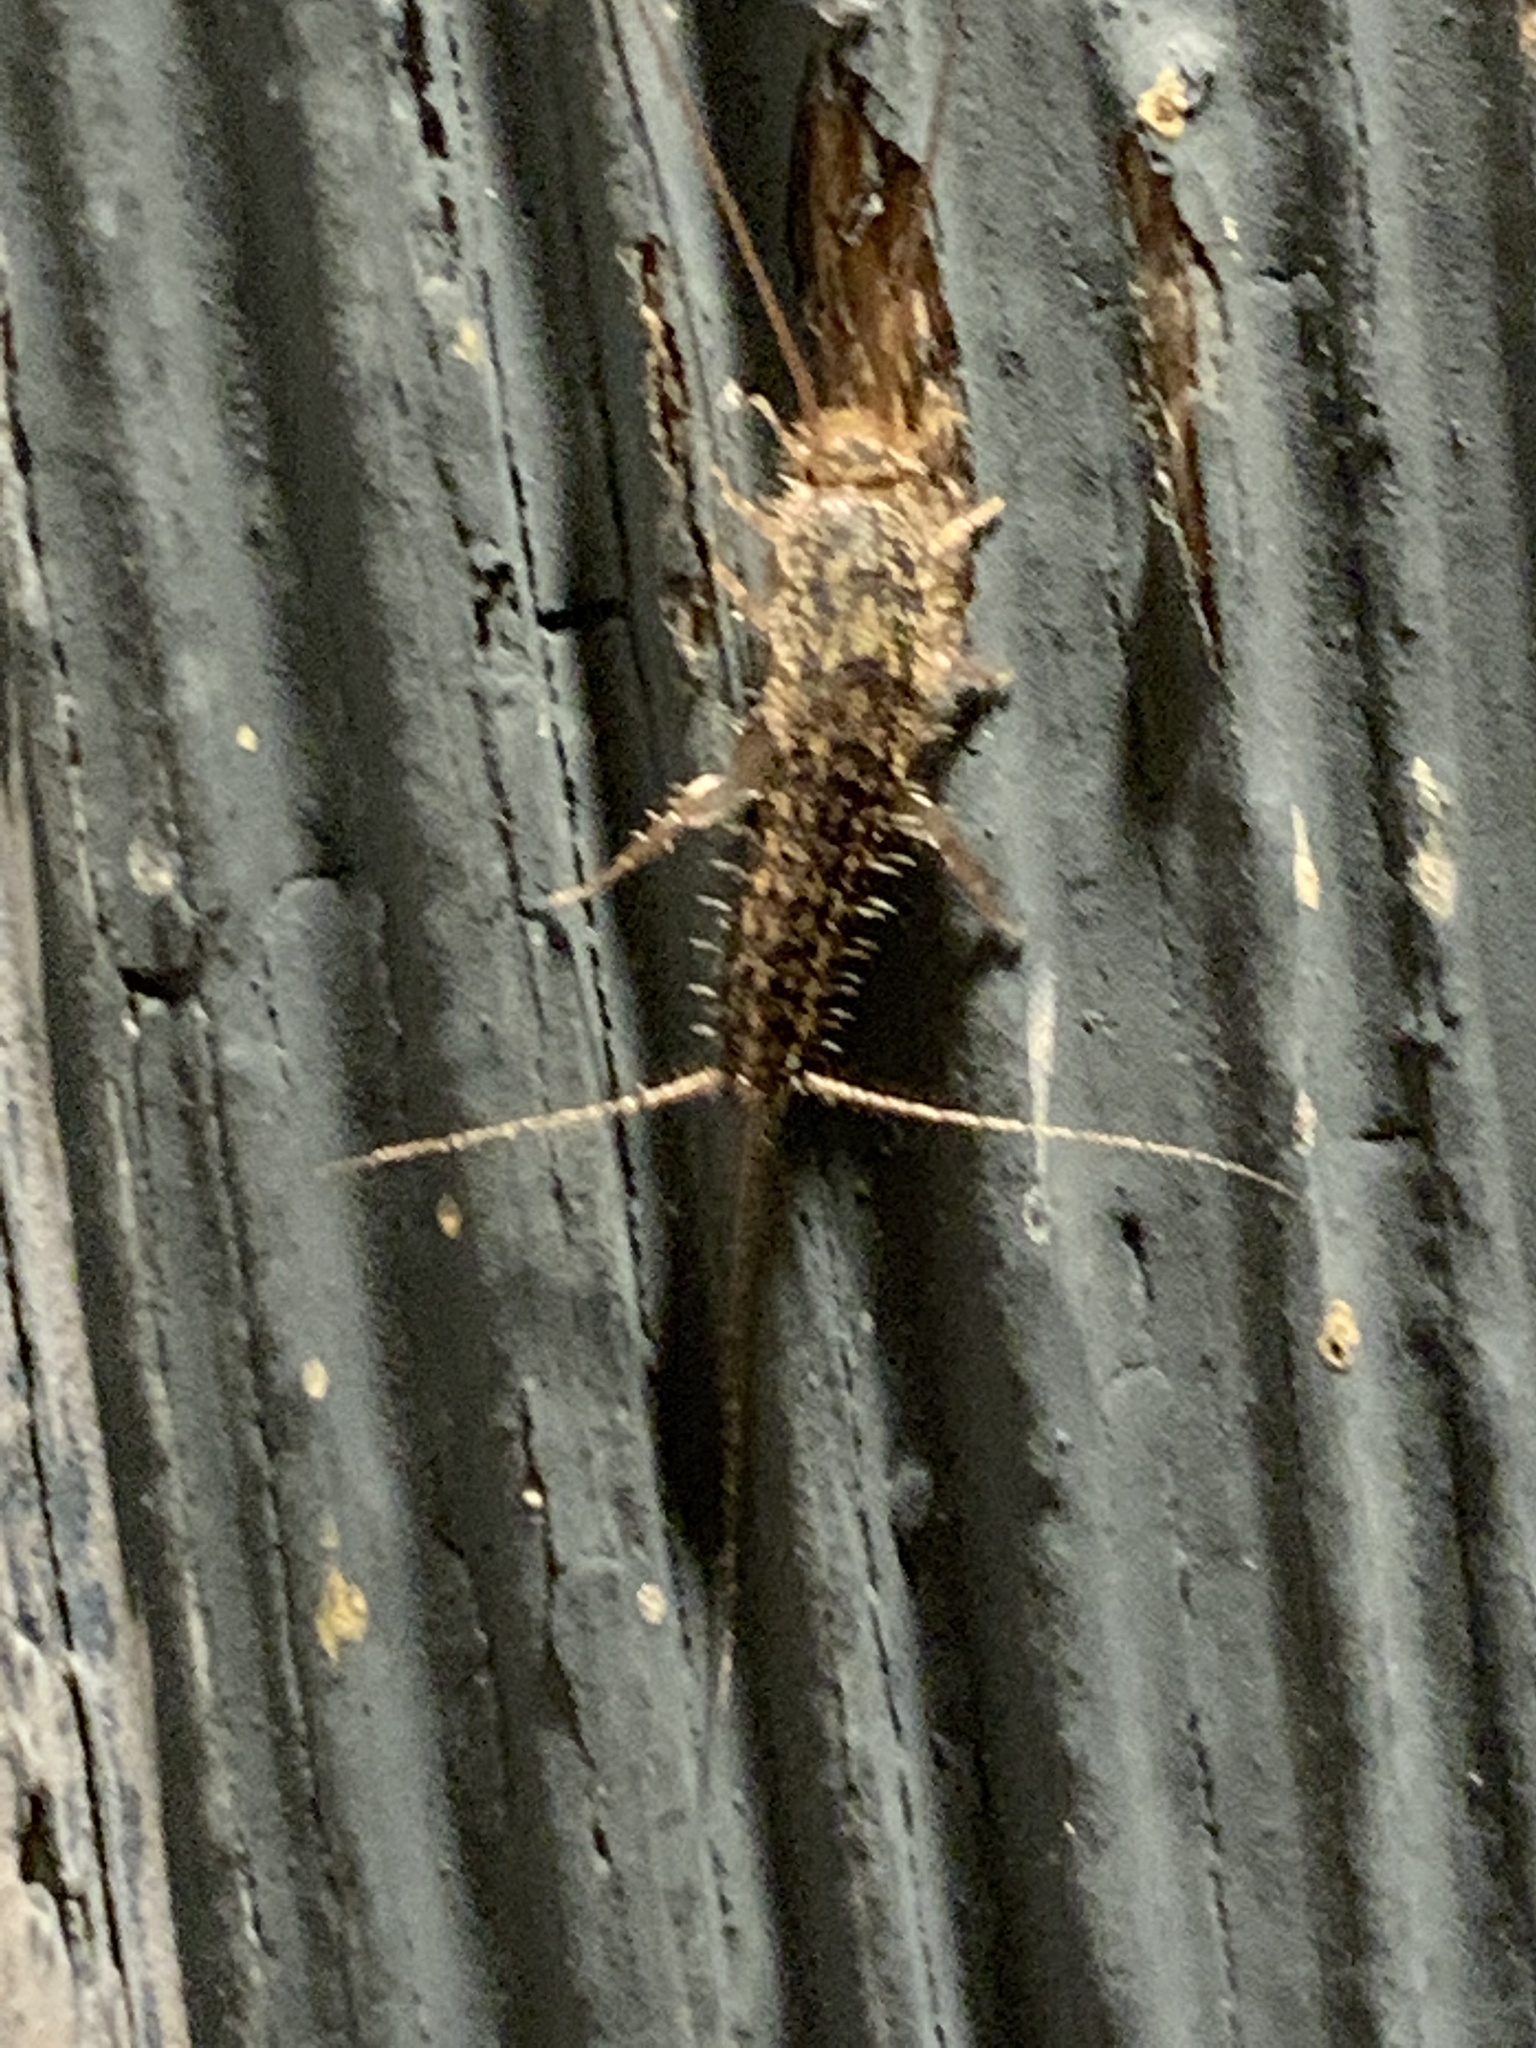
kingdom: Animalia
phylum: Arthropoda
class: Insecta
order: Zygentoma
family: Lepismatidae
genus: Ctenolepisma
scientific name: Ctenolepisma lineata
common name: Four-lined silverfish
